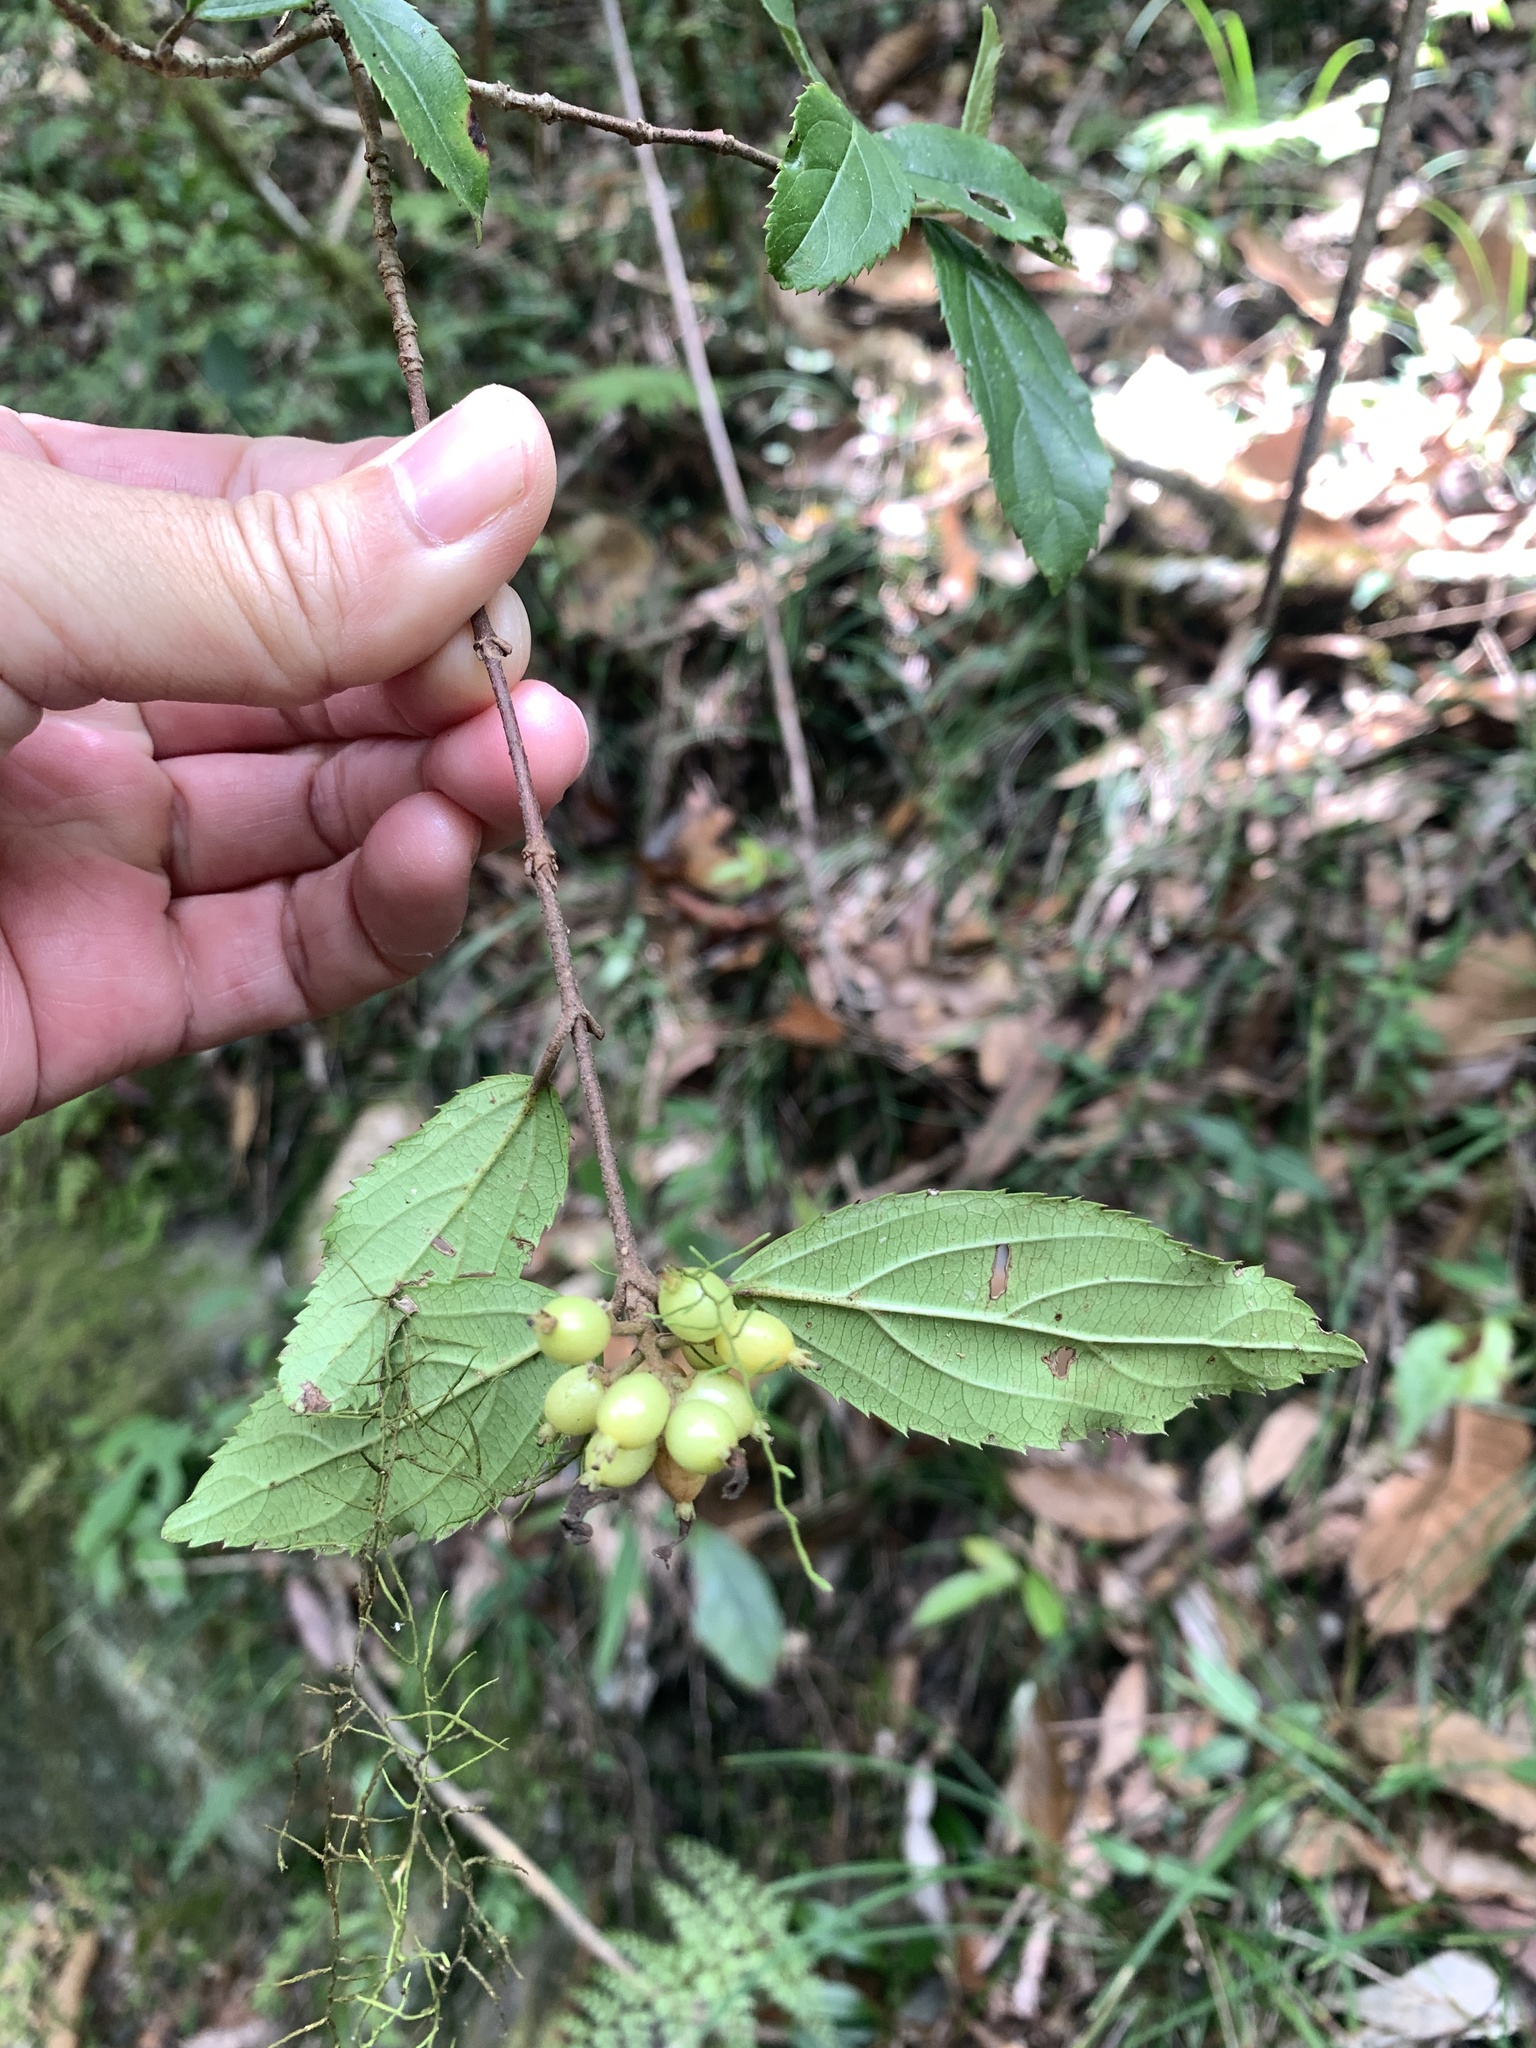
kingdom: Plantae
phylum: Tracheophyta
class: Magnoliopsida
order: Dipsacales
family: Viburnaceae
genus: Viburnum
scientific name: Viburnum taitoense
